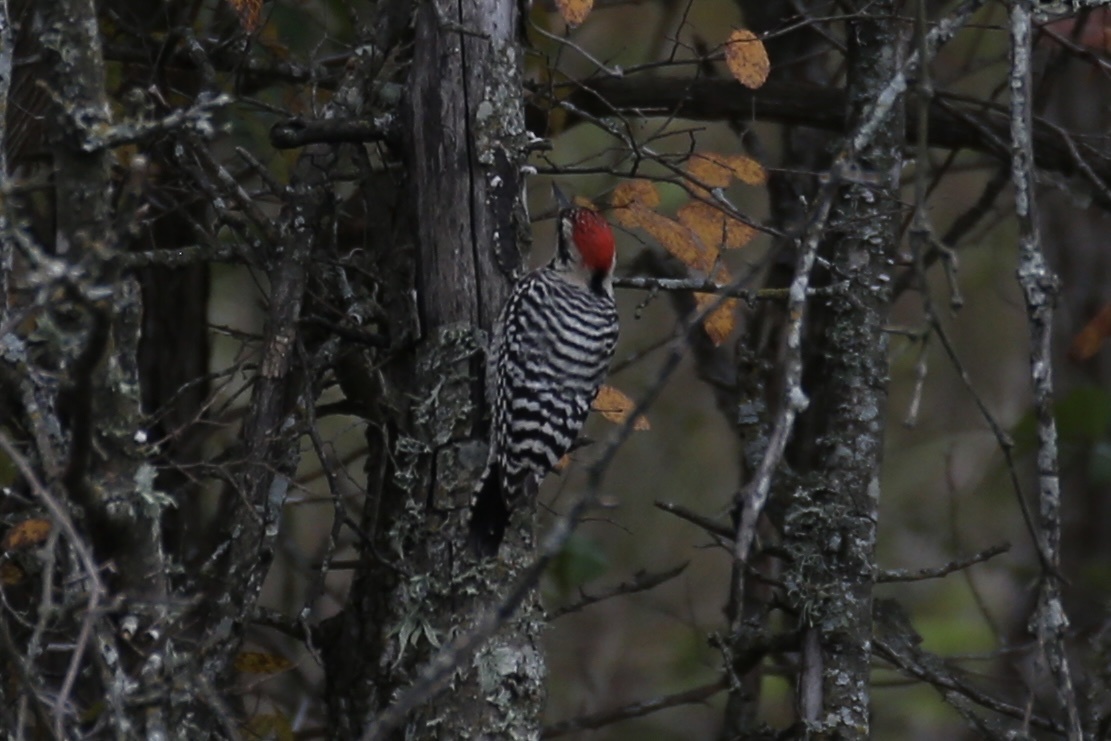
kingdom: Animalia
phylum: Chordata
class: Aves
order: Piciformes
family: Picidae
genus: Dryobates
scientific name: Dryobates scalaris
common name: Ladder-backed woodpecker
